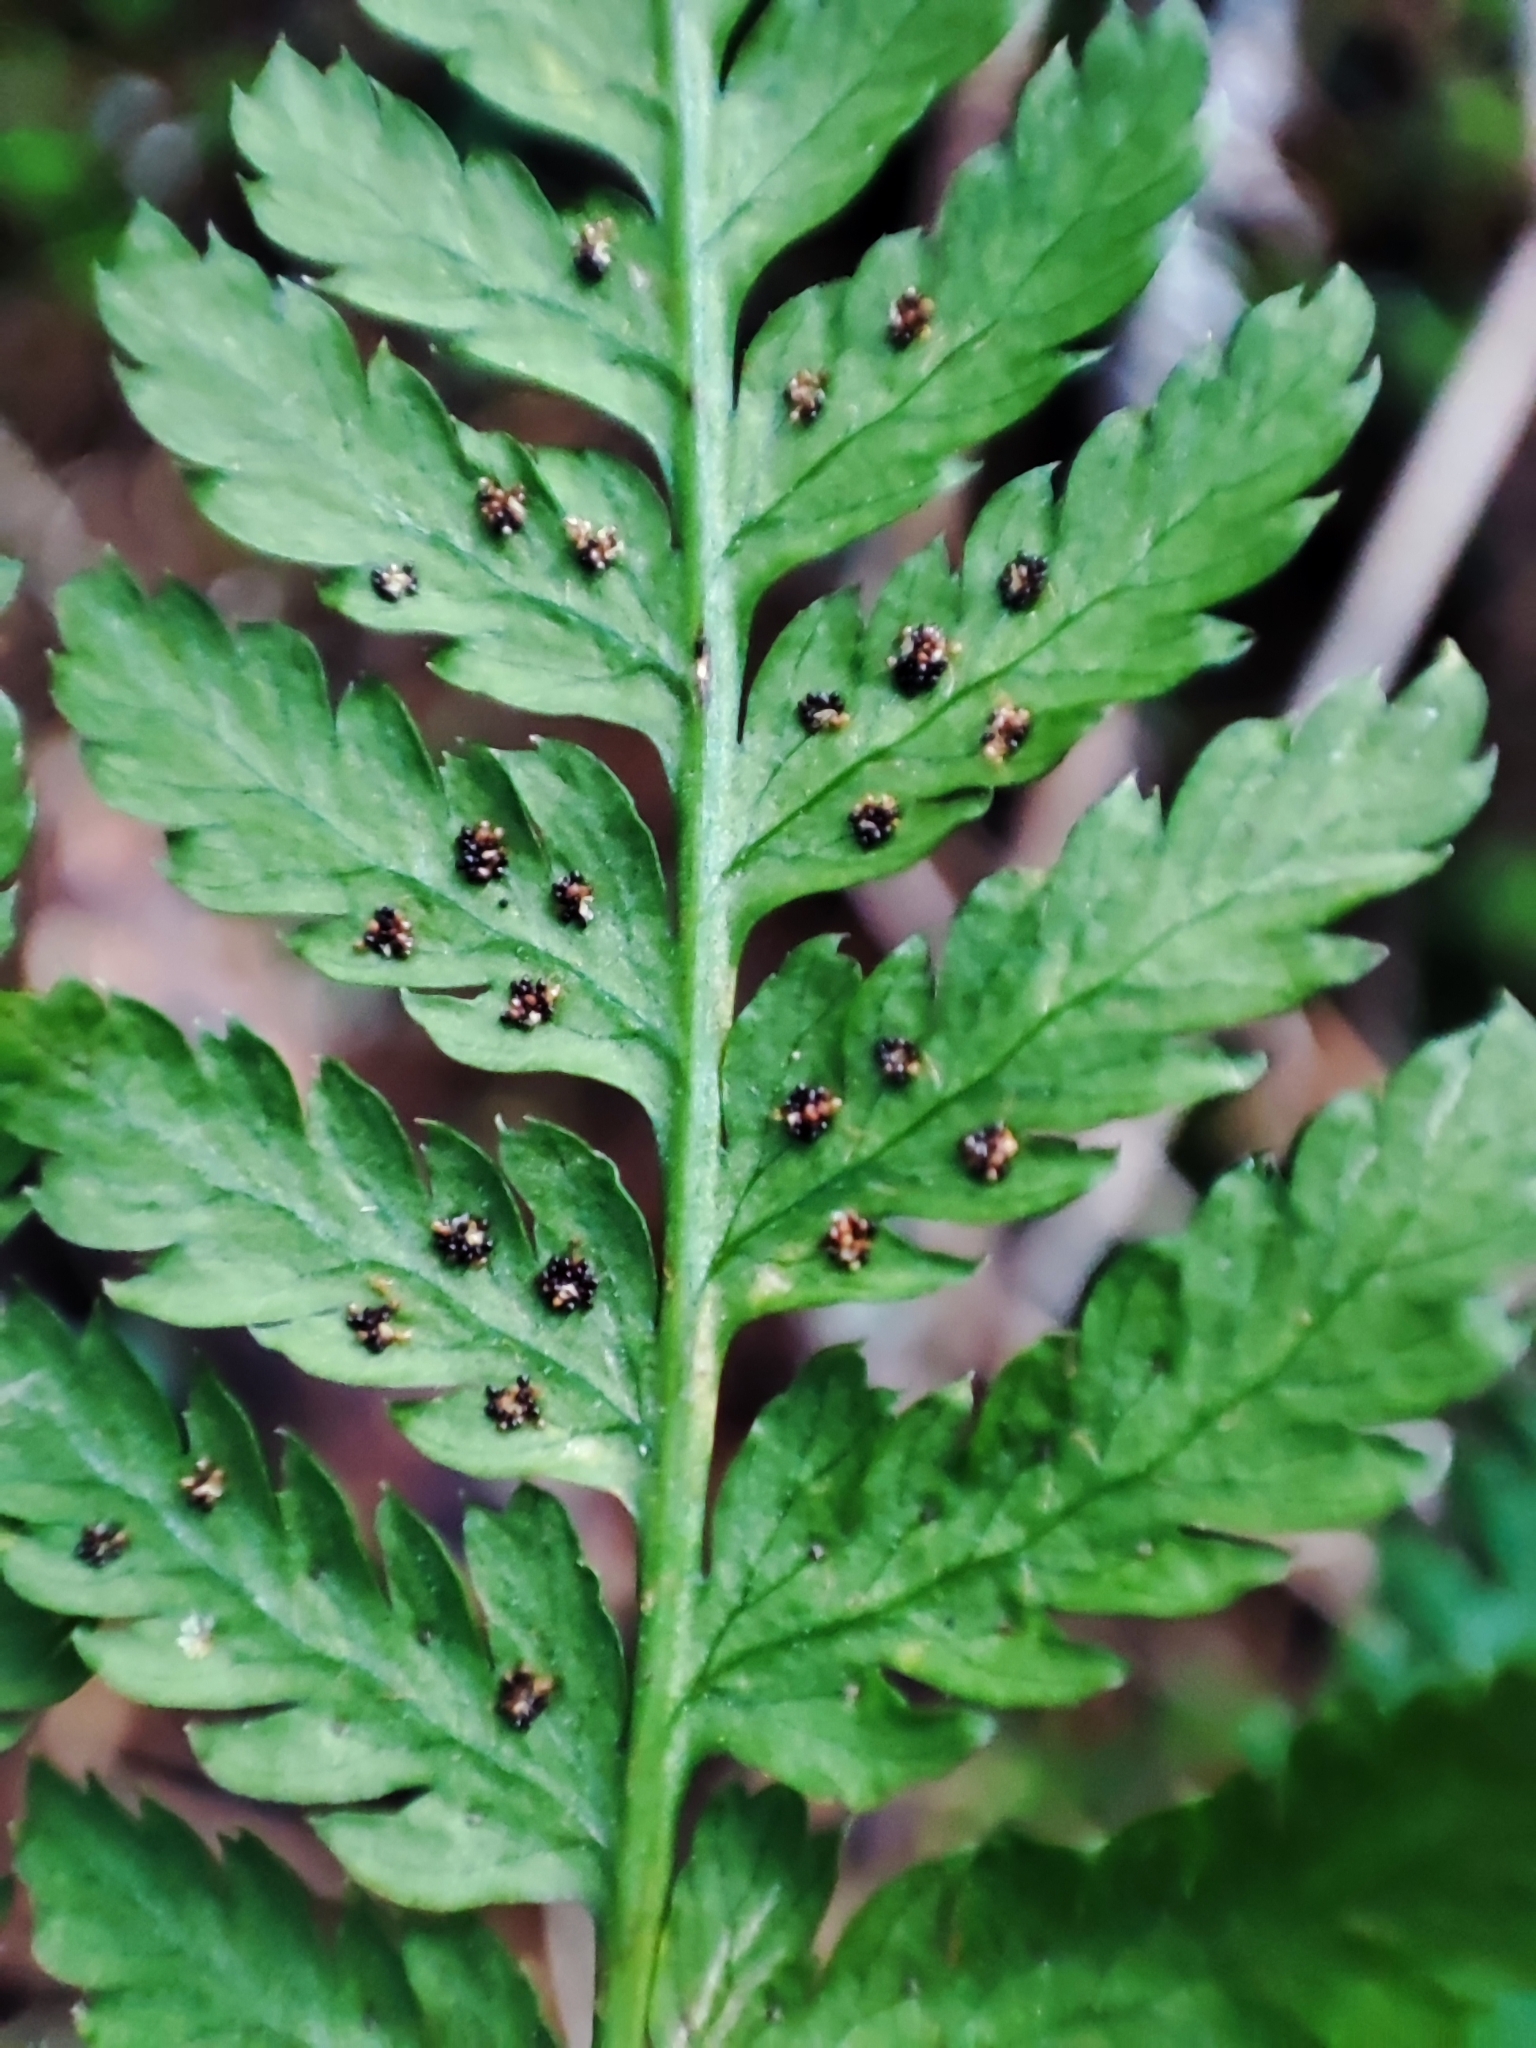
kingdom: Plantae
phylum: Tracheophyta
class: Polypodiopsida
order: Polypodiales
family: Dryopteridaceae
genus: Dryopteris
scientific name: Dryopteris expansa
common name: Northern buckler fern
